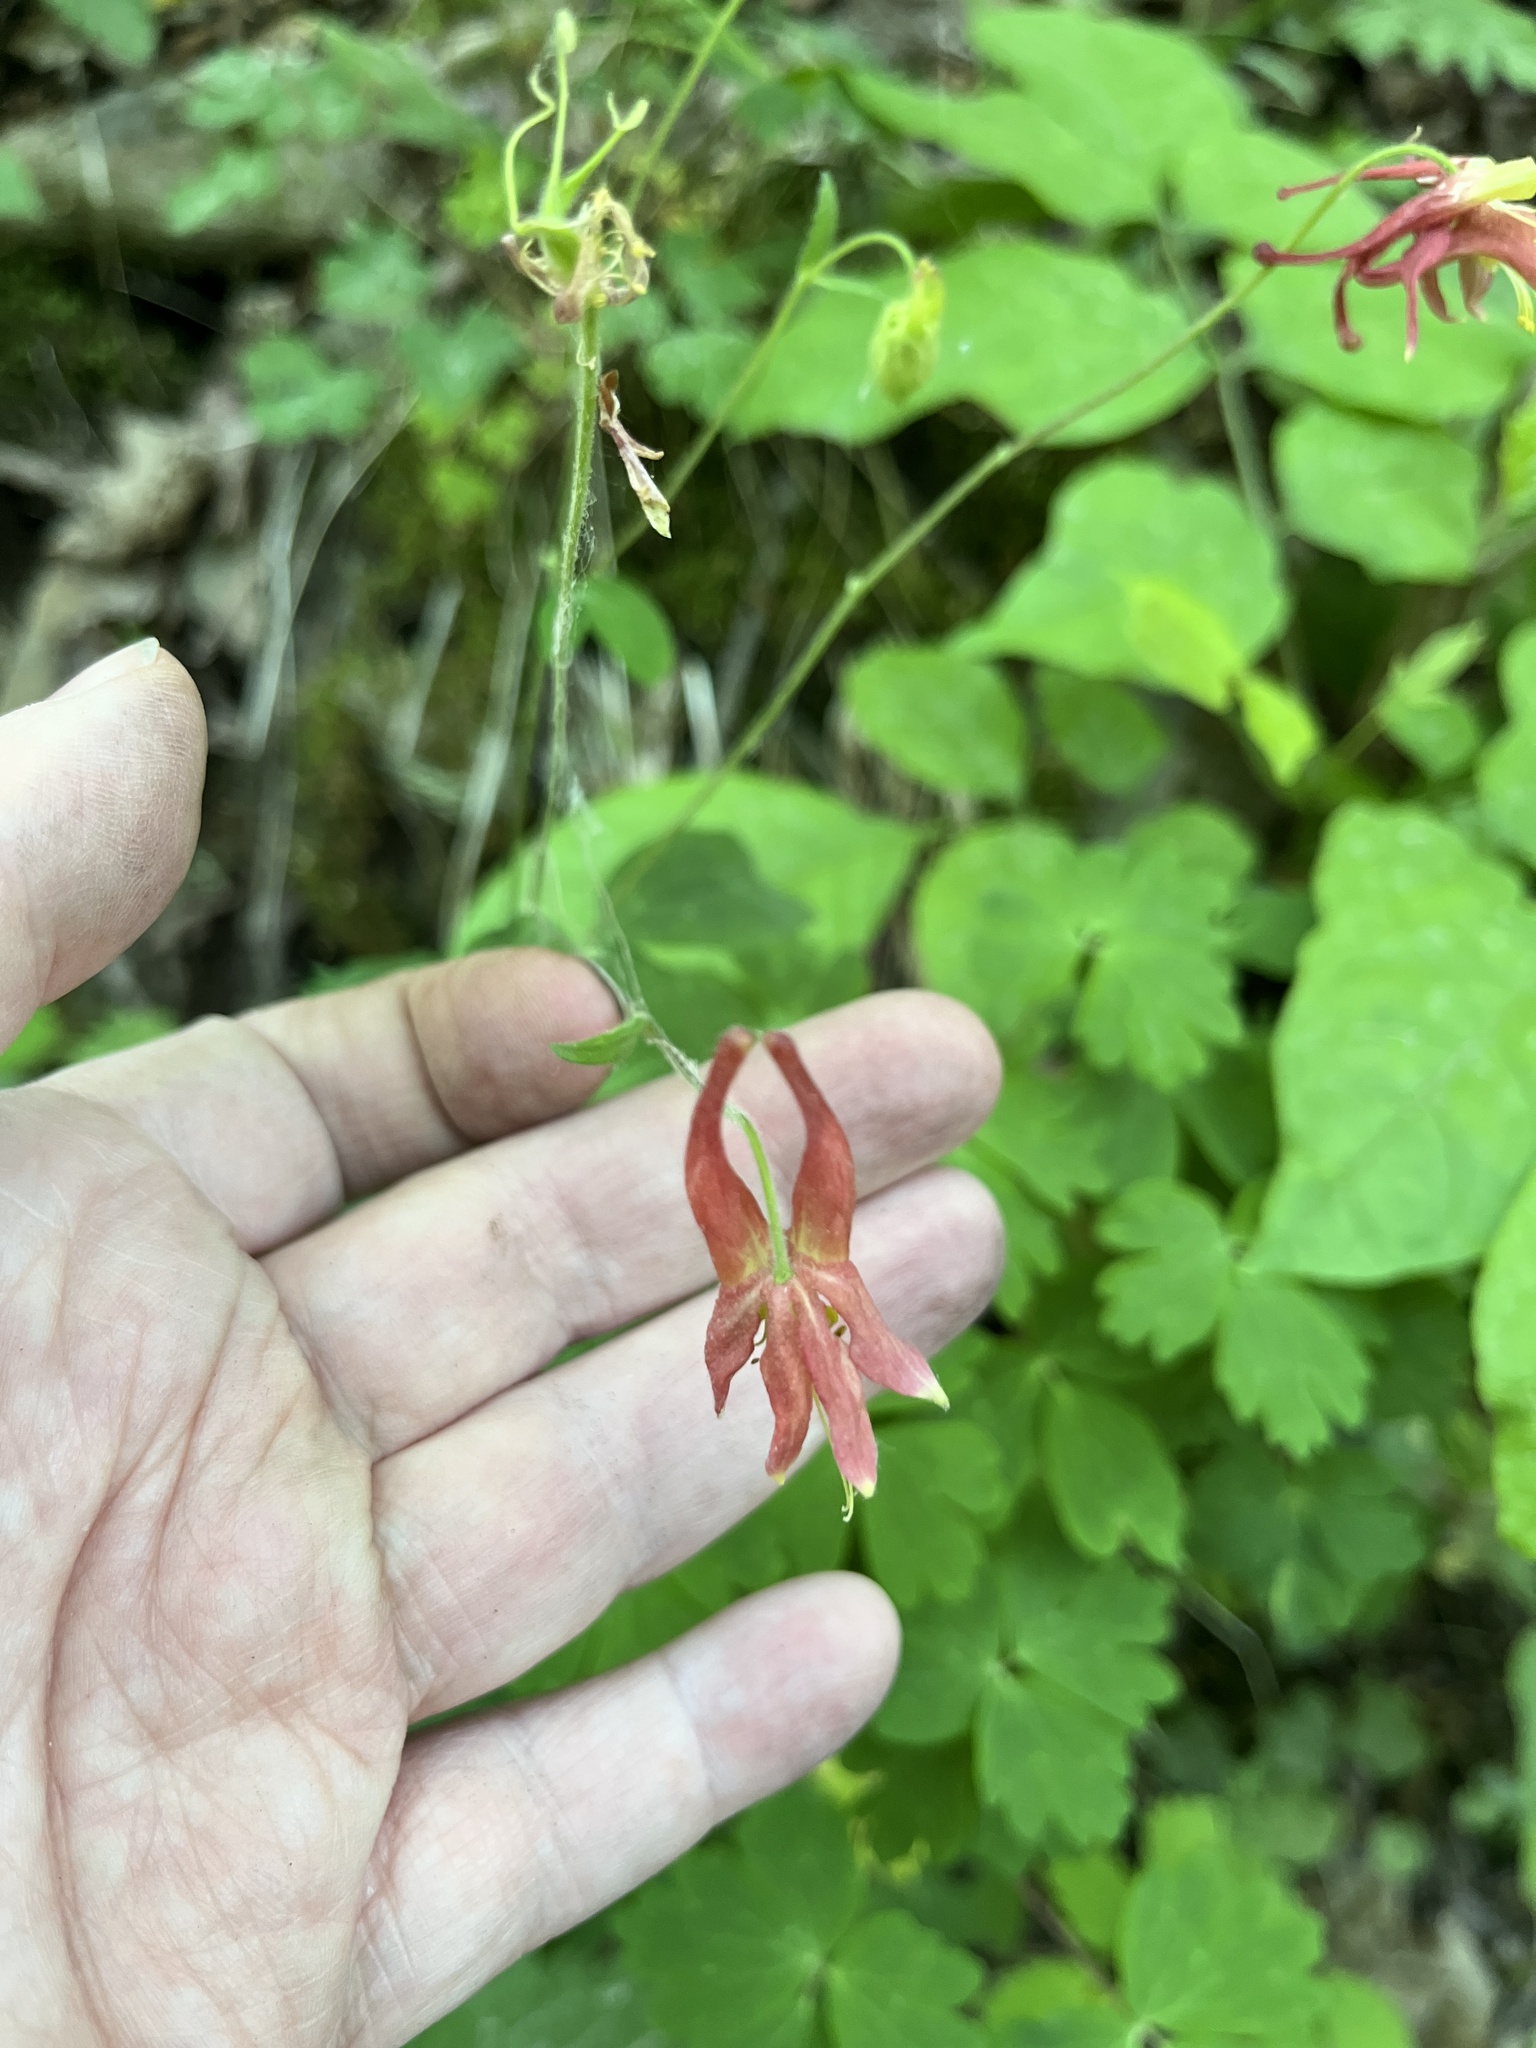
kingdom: Plantae
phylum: Tracheophyta
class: Magnoliopsida
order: Ranunculales
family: Ranunculaceae
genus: Aquilegia
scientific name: Aquilegia canadensis
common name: American columbine
